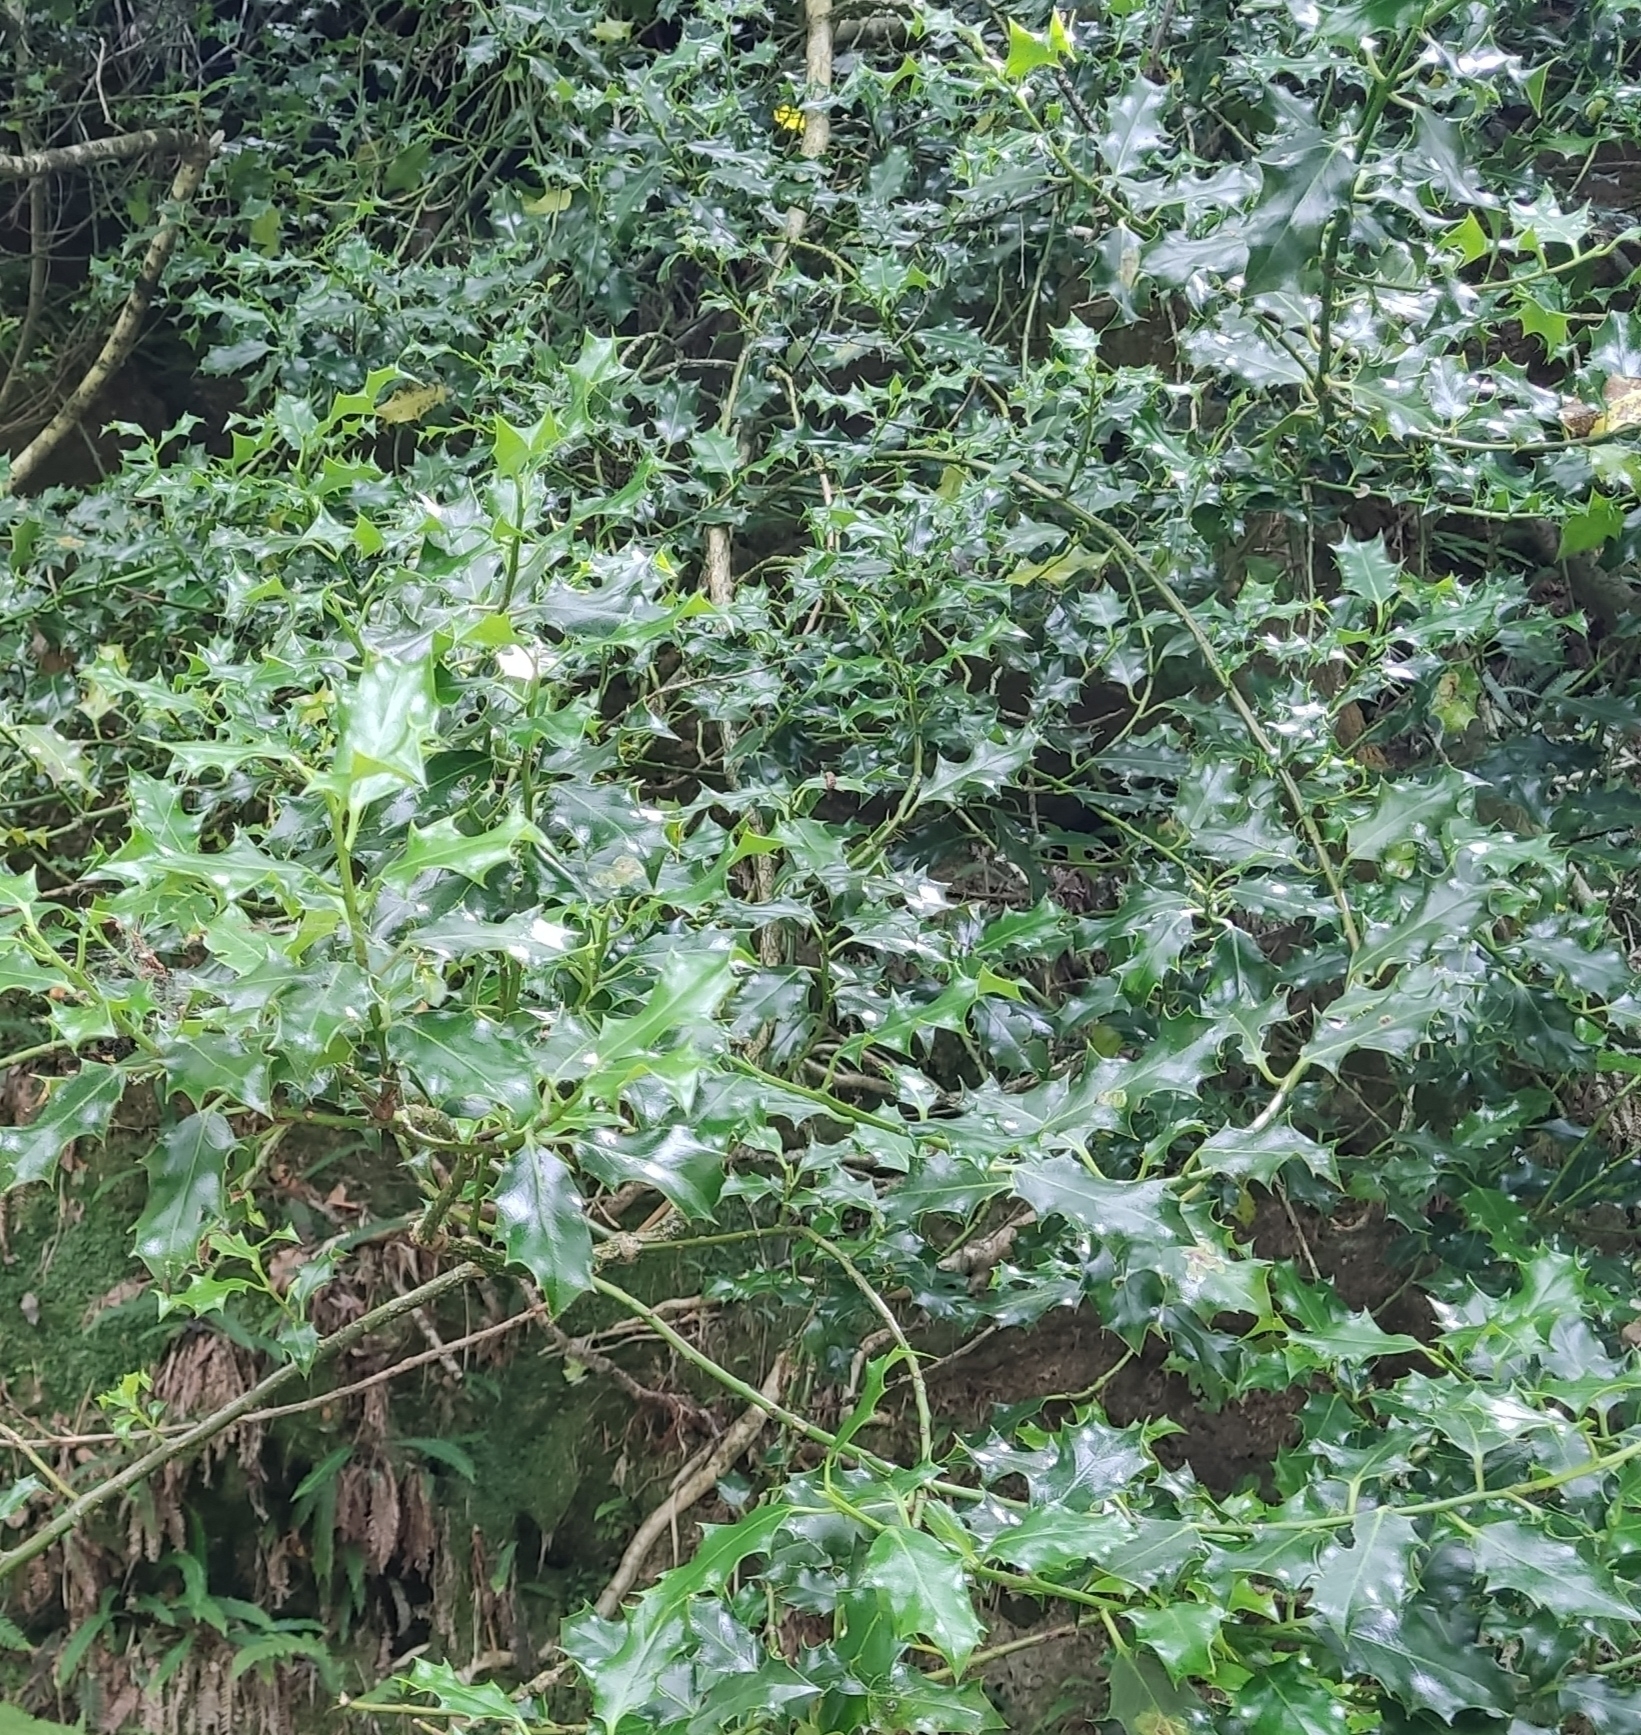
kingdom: Plantae
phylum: Tracheophyta
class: Magnoliopsida
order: Aquifoliales
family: Aquifoliaceae
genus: Ilex
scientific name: Ilex aquifolium
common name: English holly
